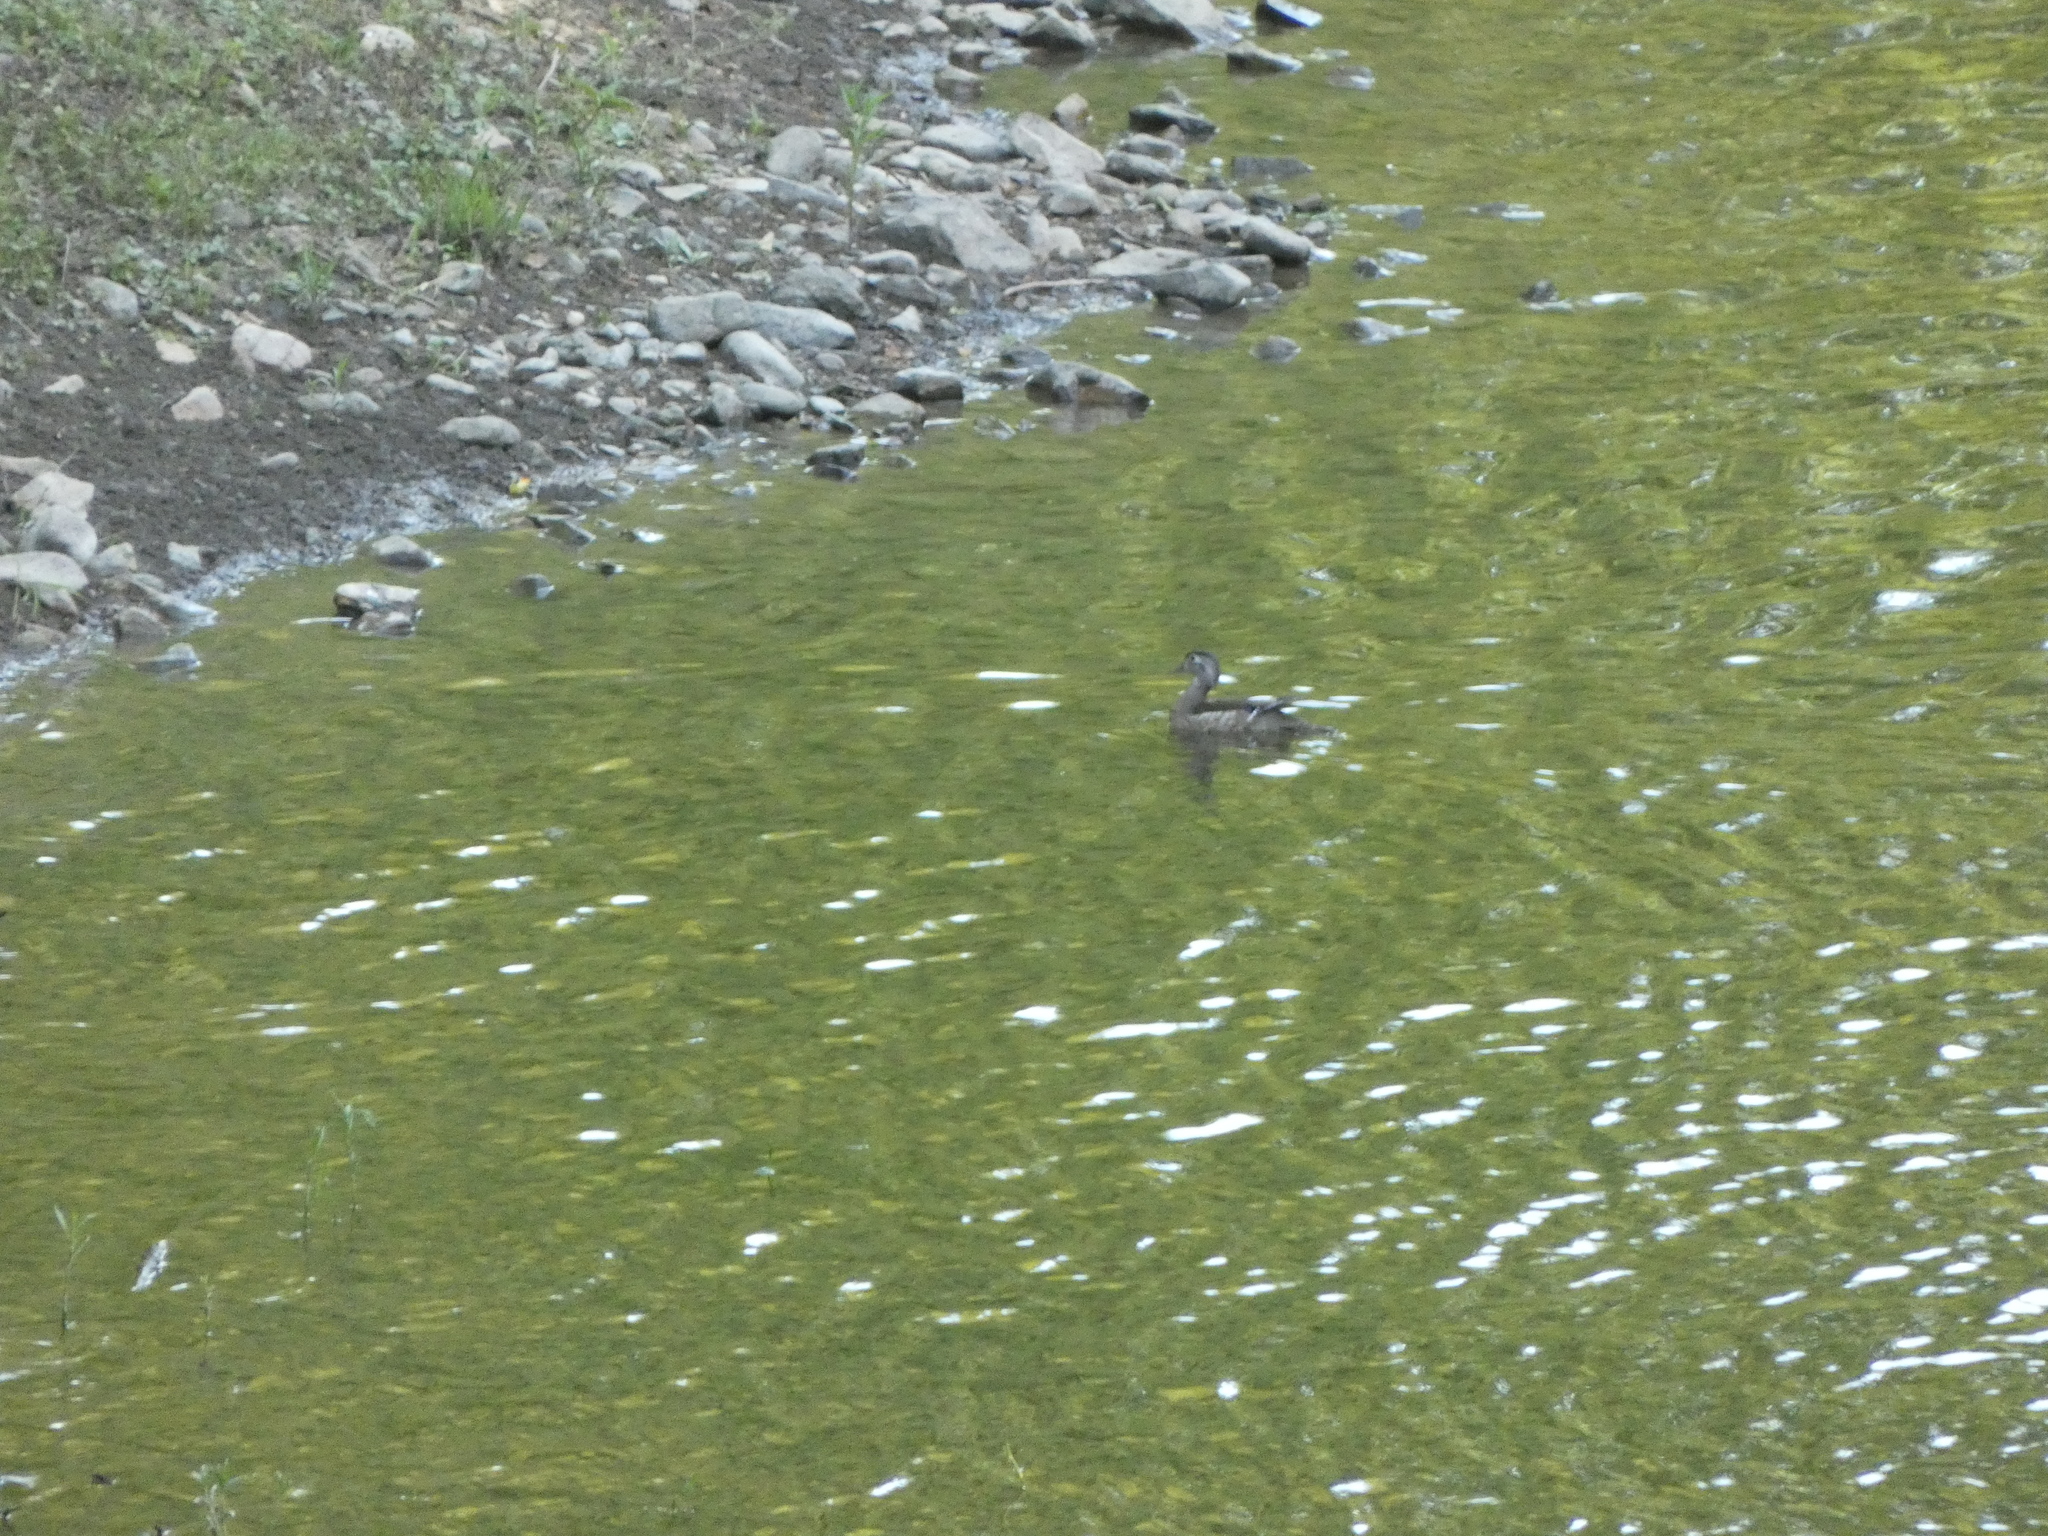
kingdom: Animalia
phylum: Chordata
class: Aves
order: Anseriformes
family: Anatidae
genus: Aix
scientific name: Aix sponsa
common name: Wood duck
